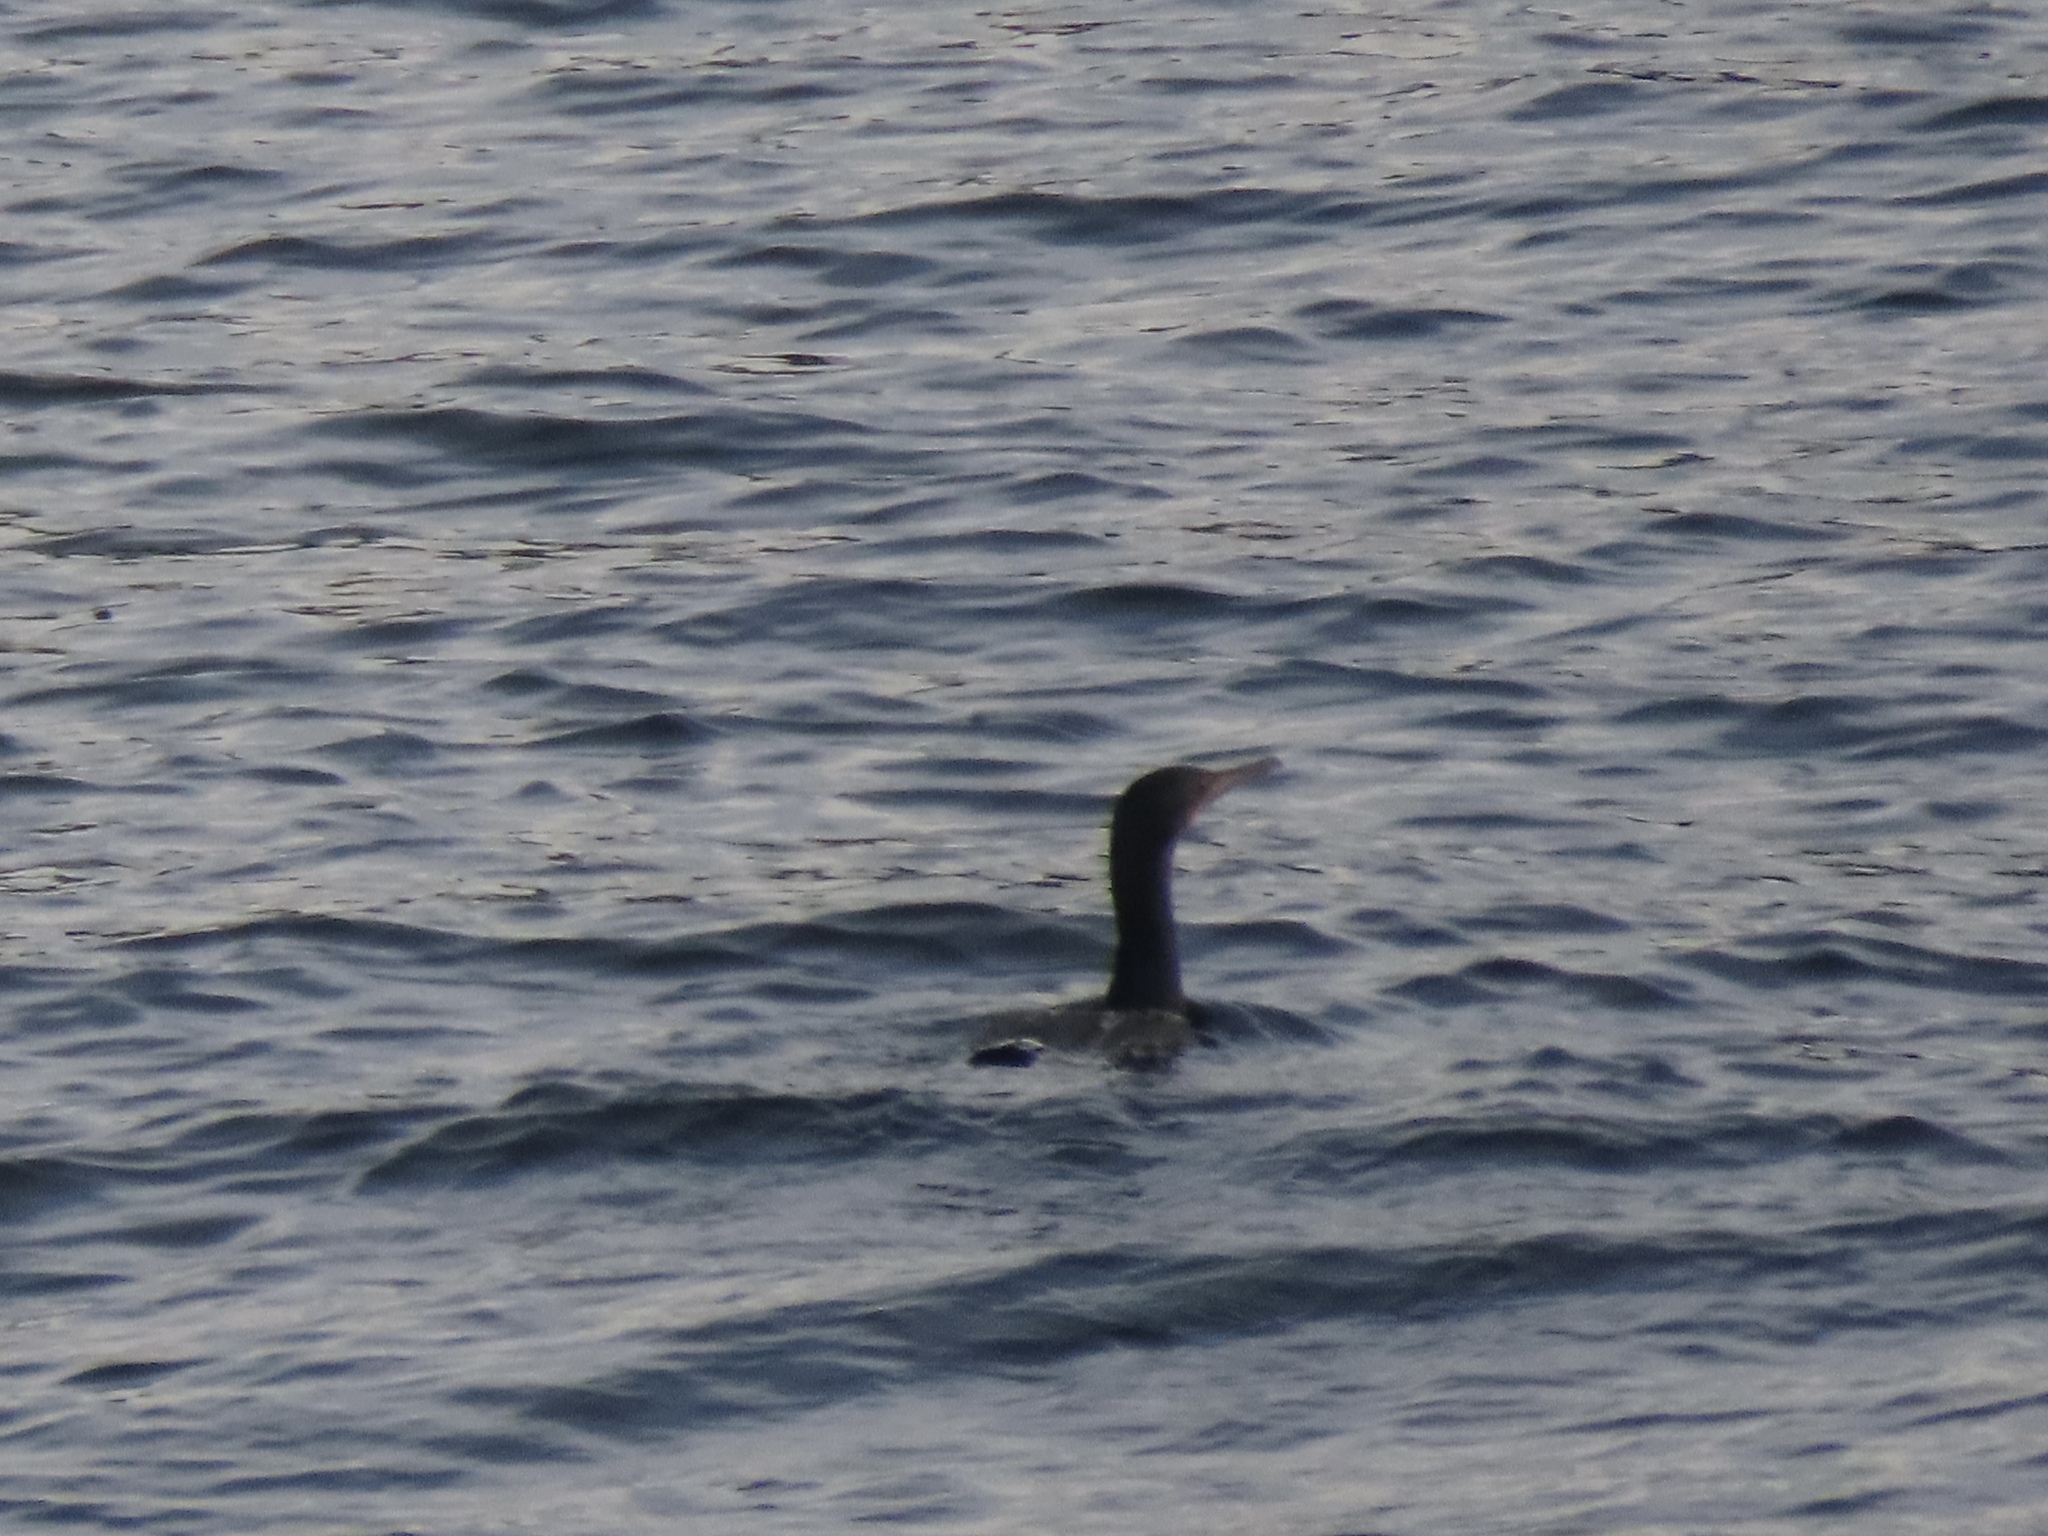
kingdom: Animalia
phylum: Chordata
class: Aves
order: Suliformes
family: Phalacrocoracidae
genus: Phalacrocorax
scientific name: Phalacrocorax auritus
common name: Double-crested cormorant
